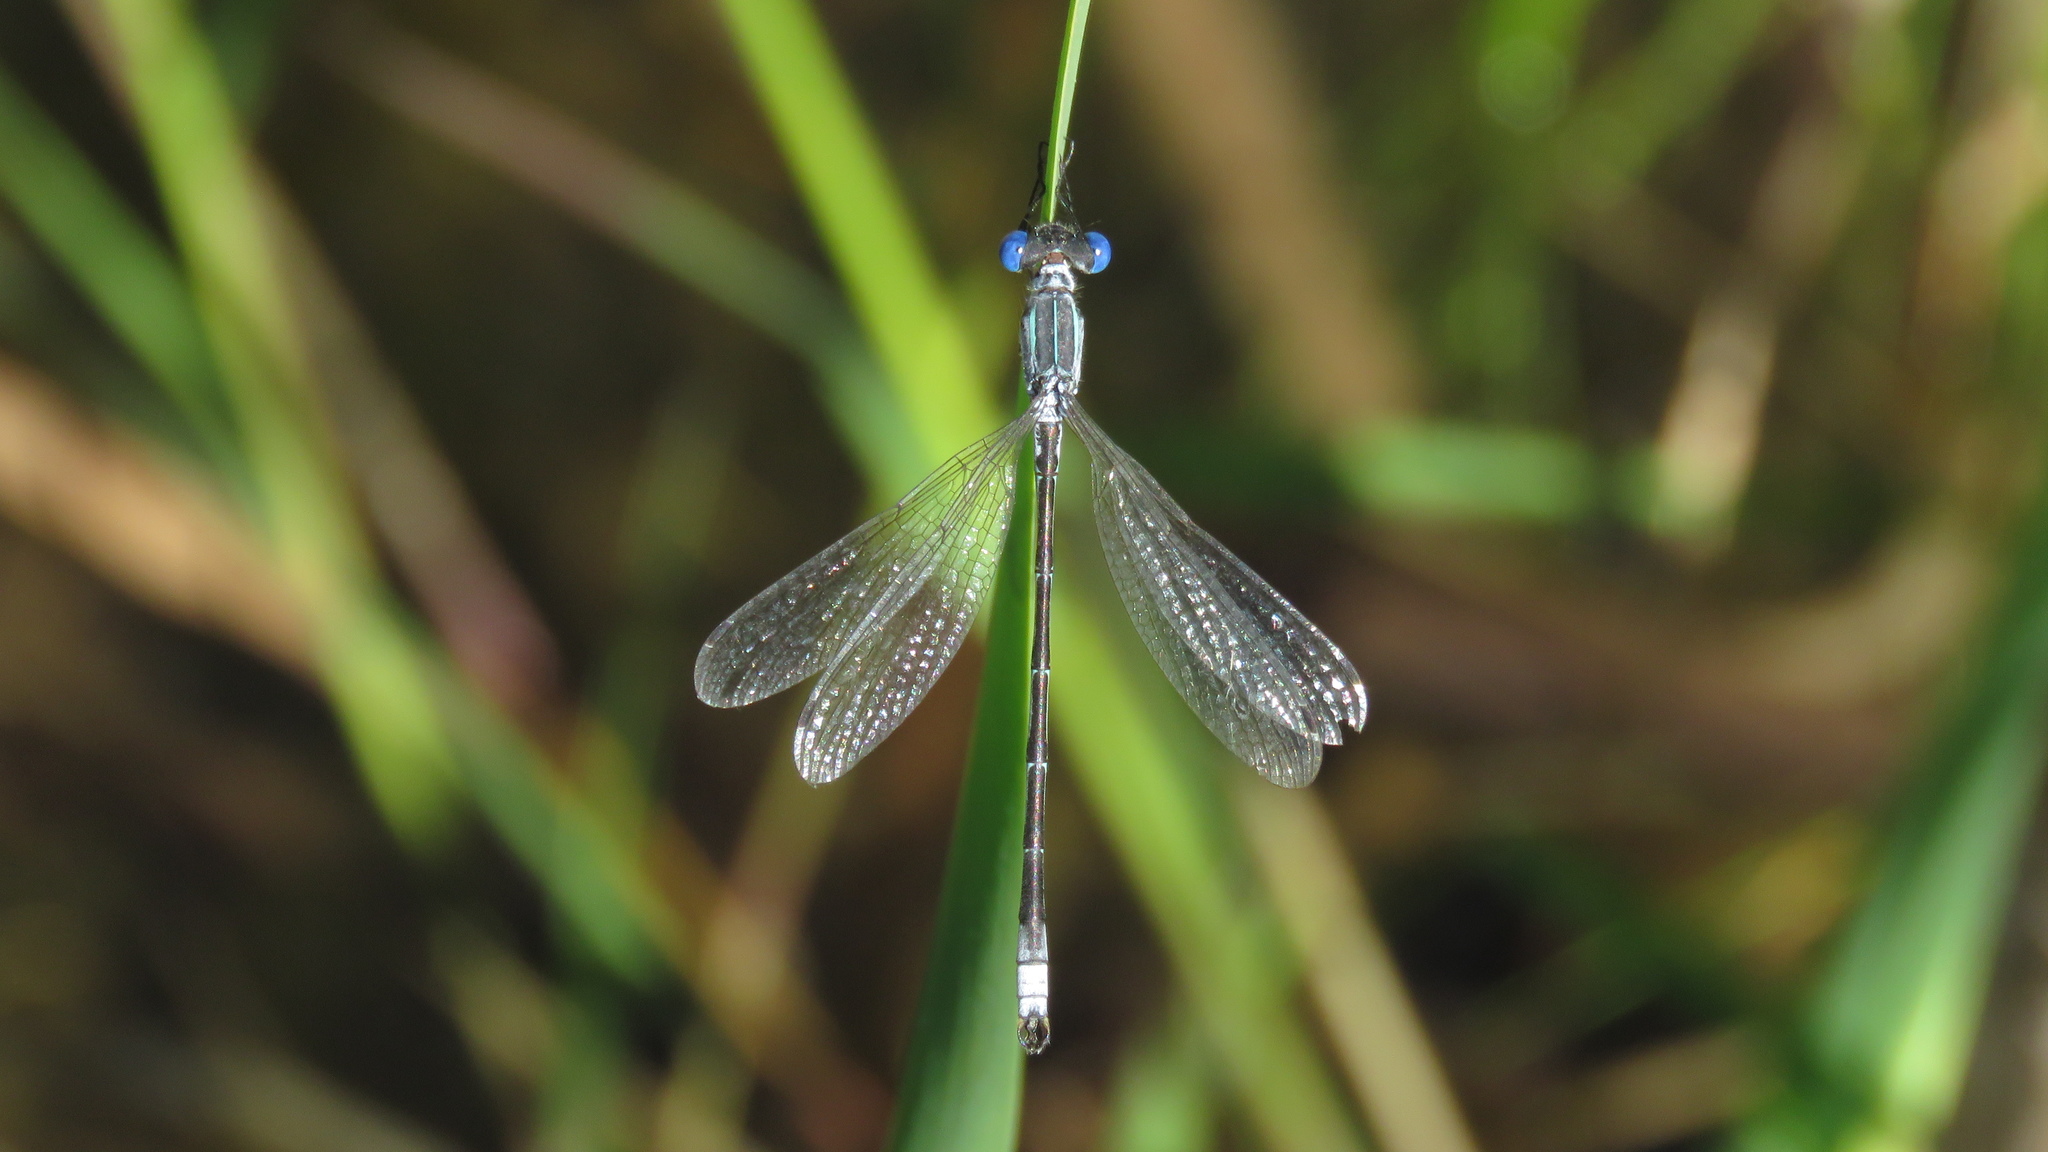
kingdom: Animalia
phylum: Arthropoda
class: Insecta
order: Odonata
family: Lestidae
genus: Lestes
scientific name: Lestes unguiculatus
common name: Lyre-tipped spreadwing
